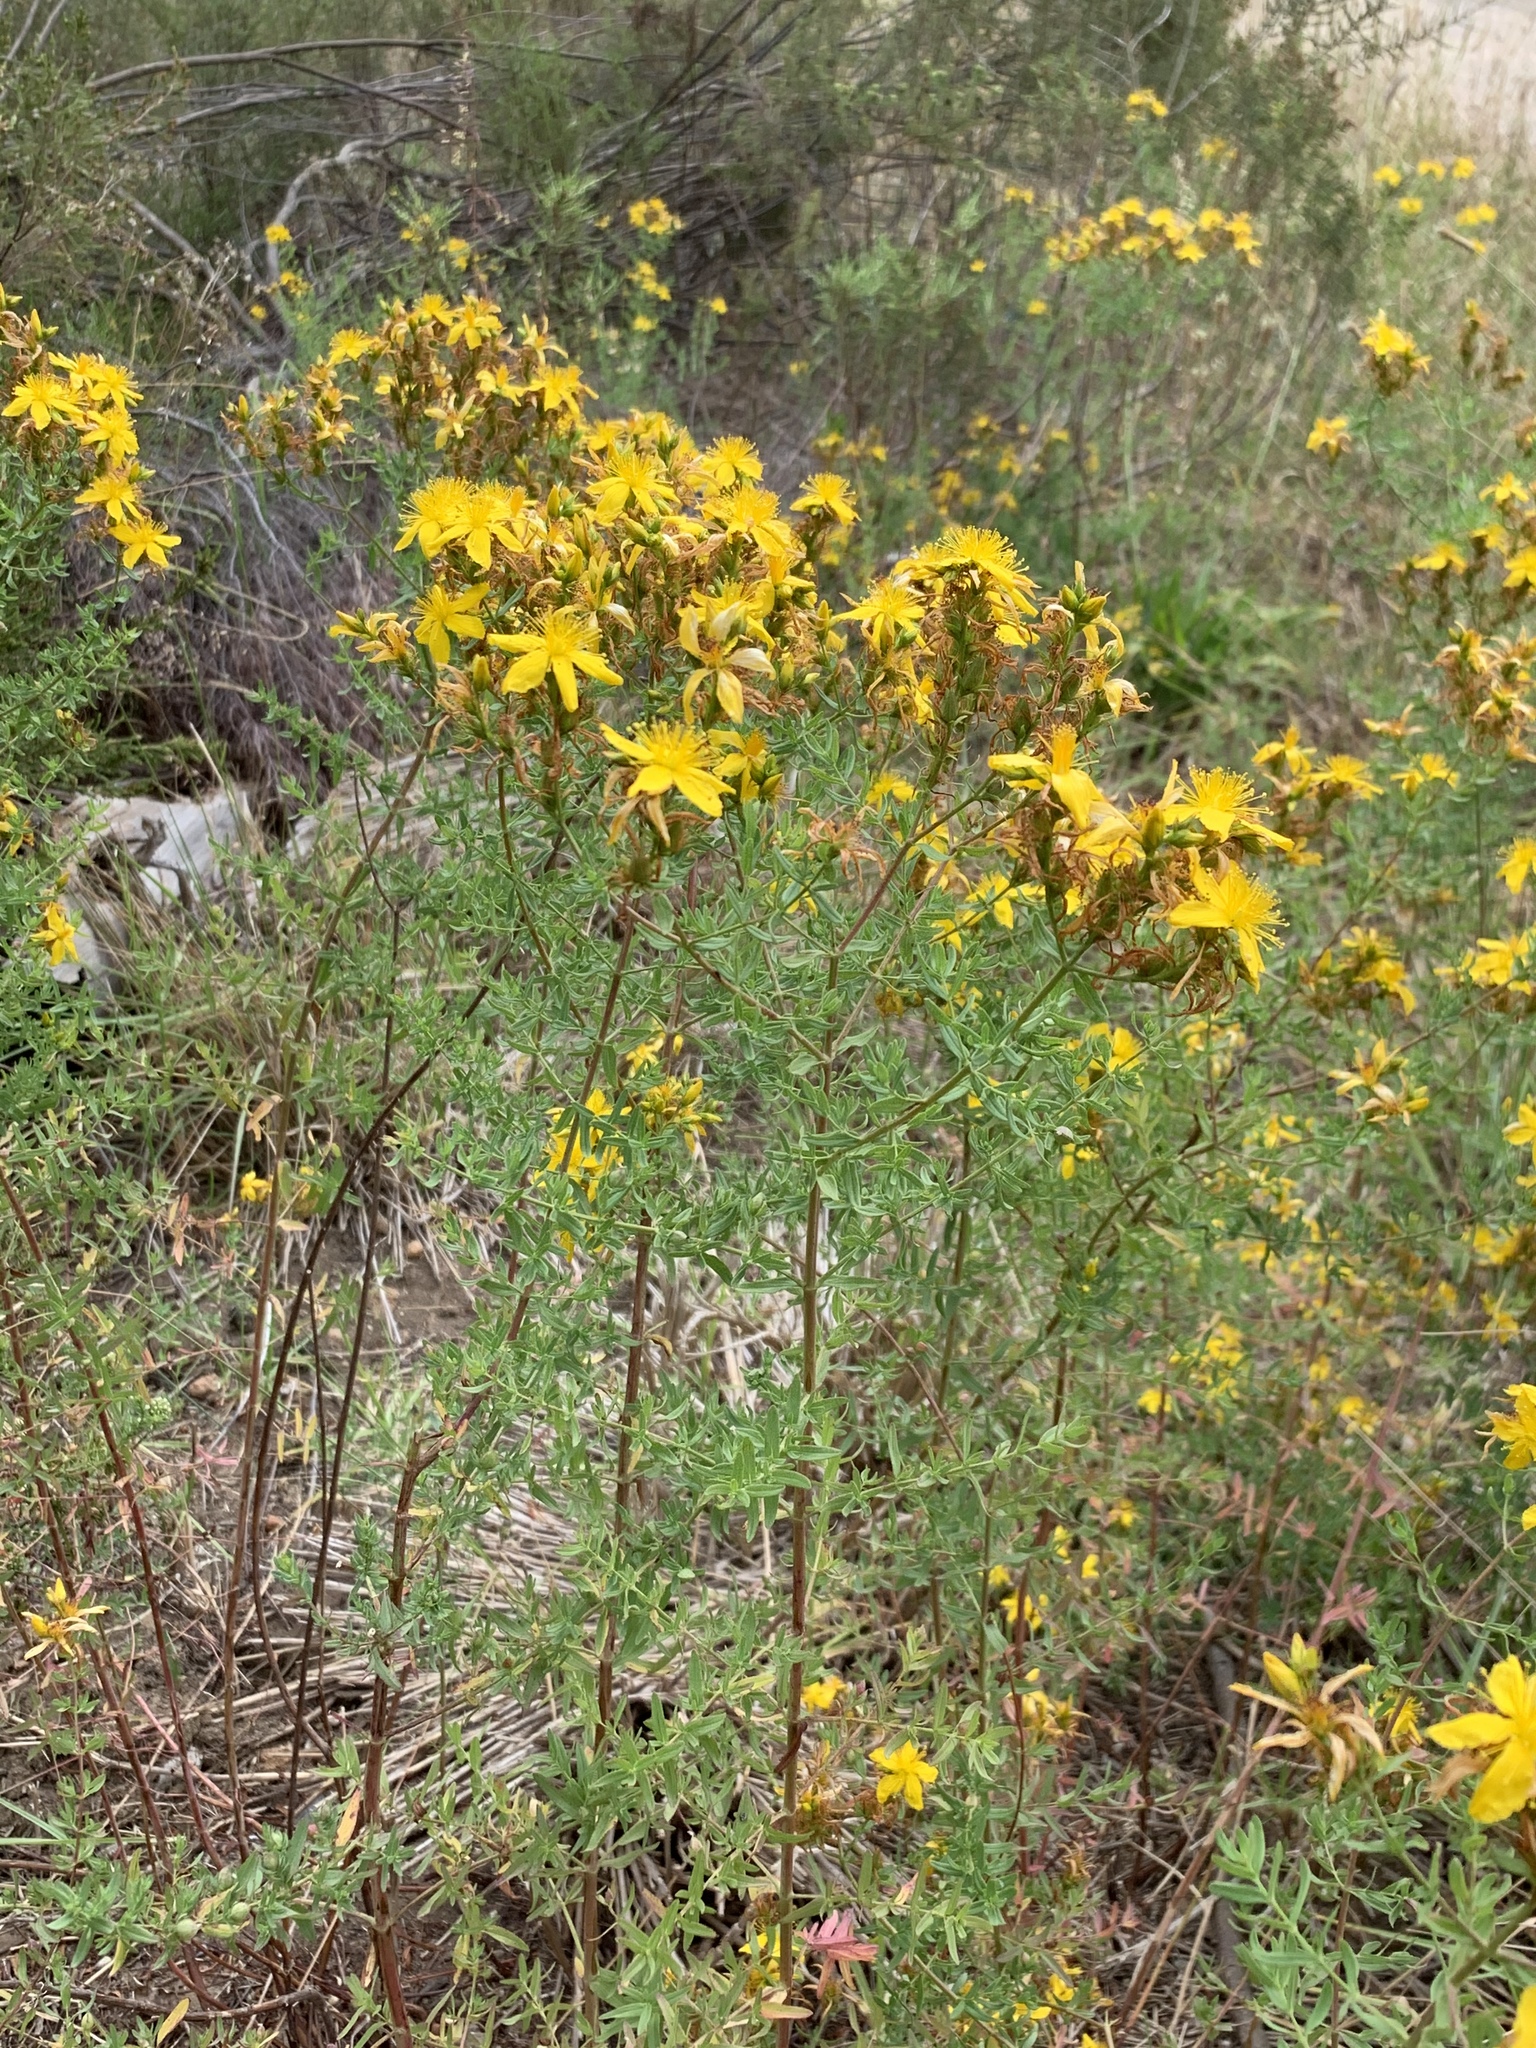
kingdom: Plantae
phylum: Tracheophyta
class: Magnoliopsida
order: Malpighiales
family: Hypericaceae
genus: Hypericum
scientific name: Hypericum perforatum
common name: Common st. johnswort
